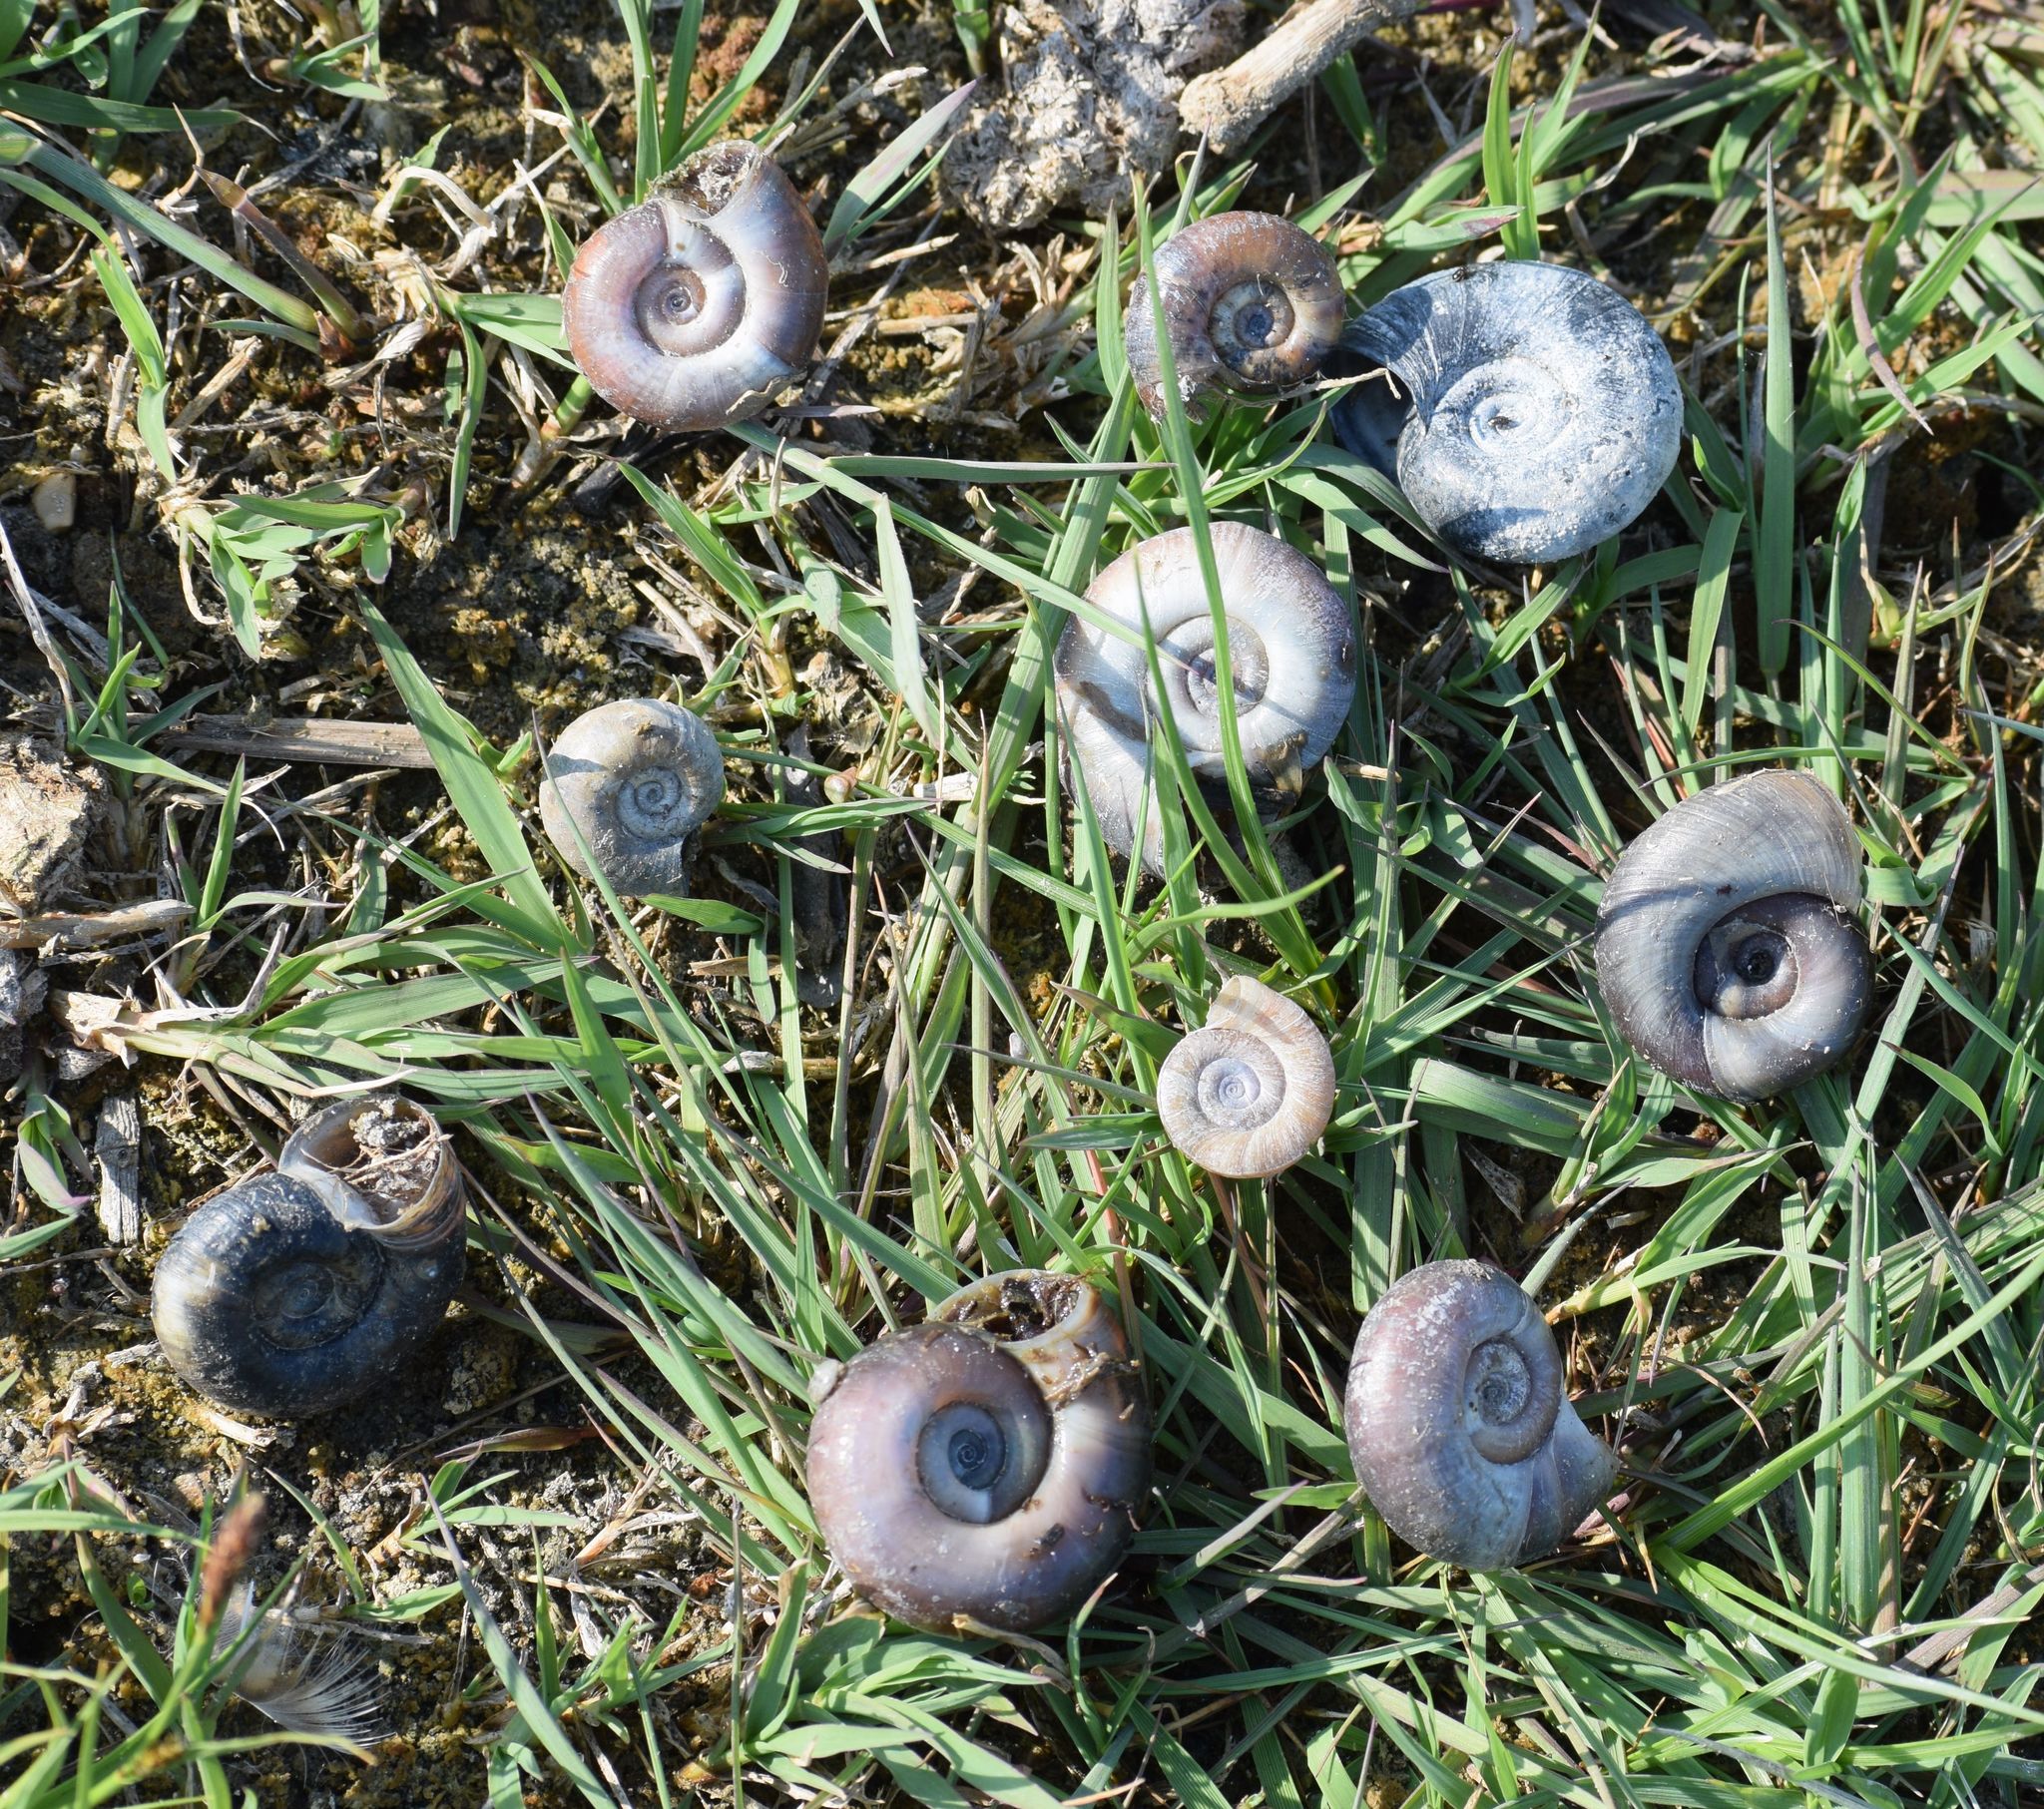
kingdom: Animalia
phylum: Mollusca
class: Gastropoda
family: Planorbidae
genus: Planorbarius
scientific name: Planorbarius corneus
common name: Great ramshorn
